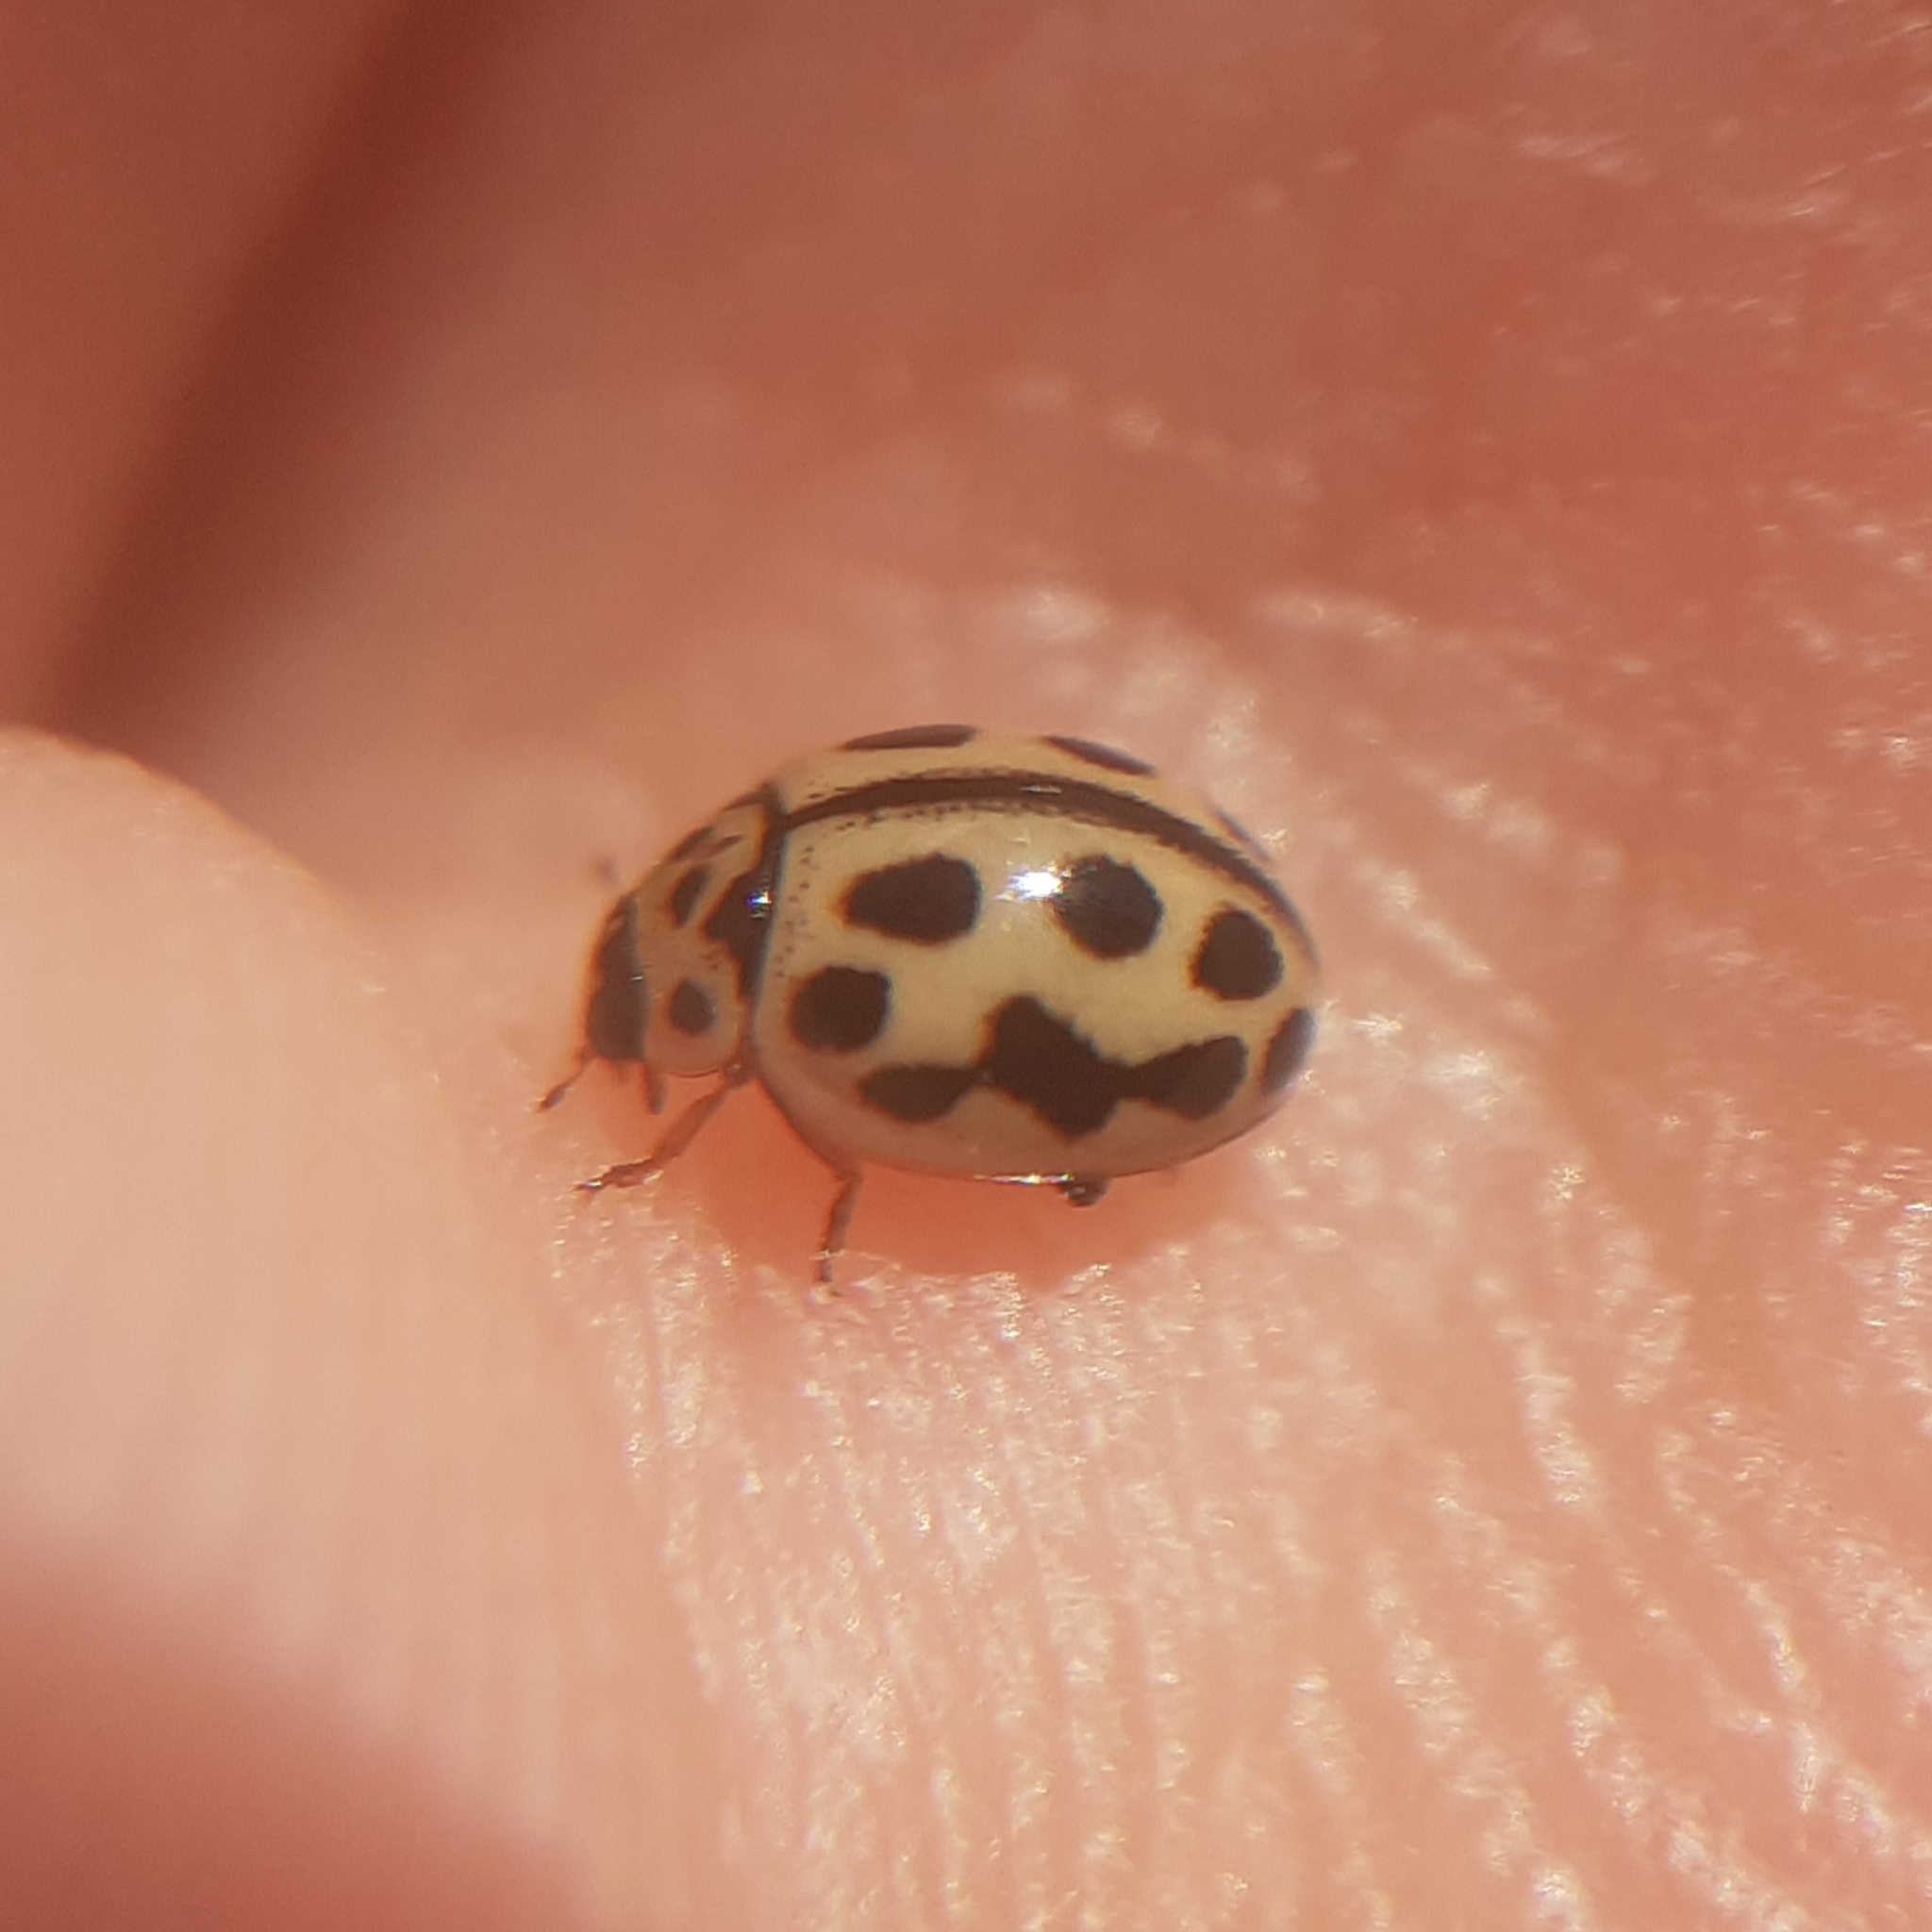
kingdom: Animalia
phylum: Arthropoda
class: Insecta
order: Coleoptera
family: Coccinellidae
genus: Tytthaspis
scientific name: Tytthaspis sedecimpunctata
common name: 16-spot ladybird
